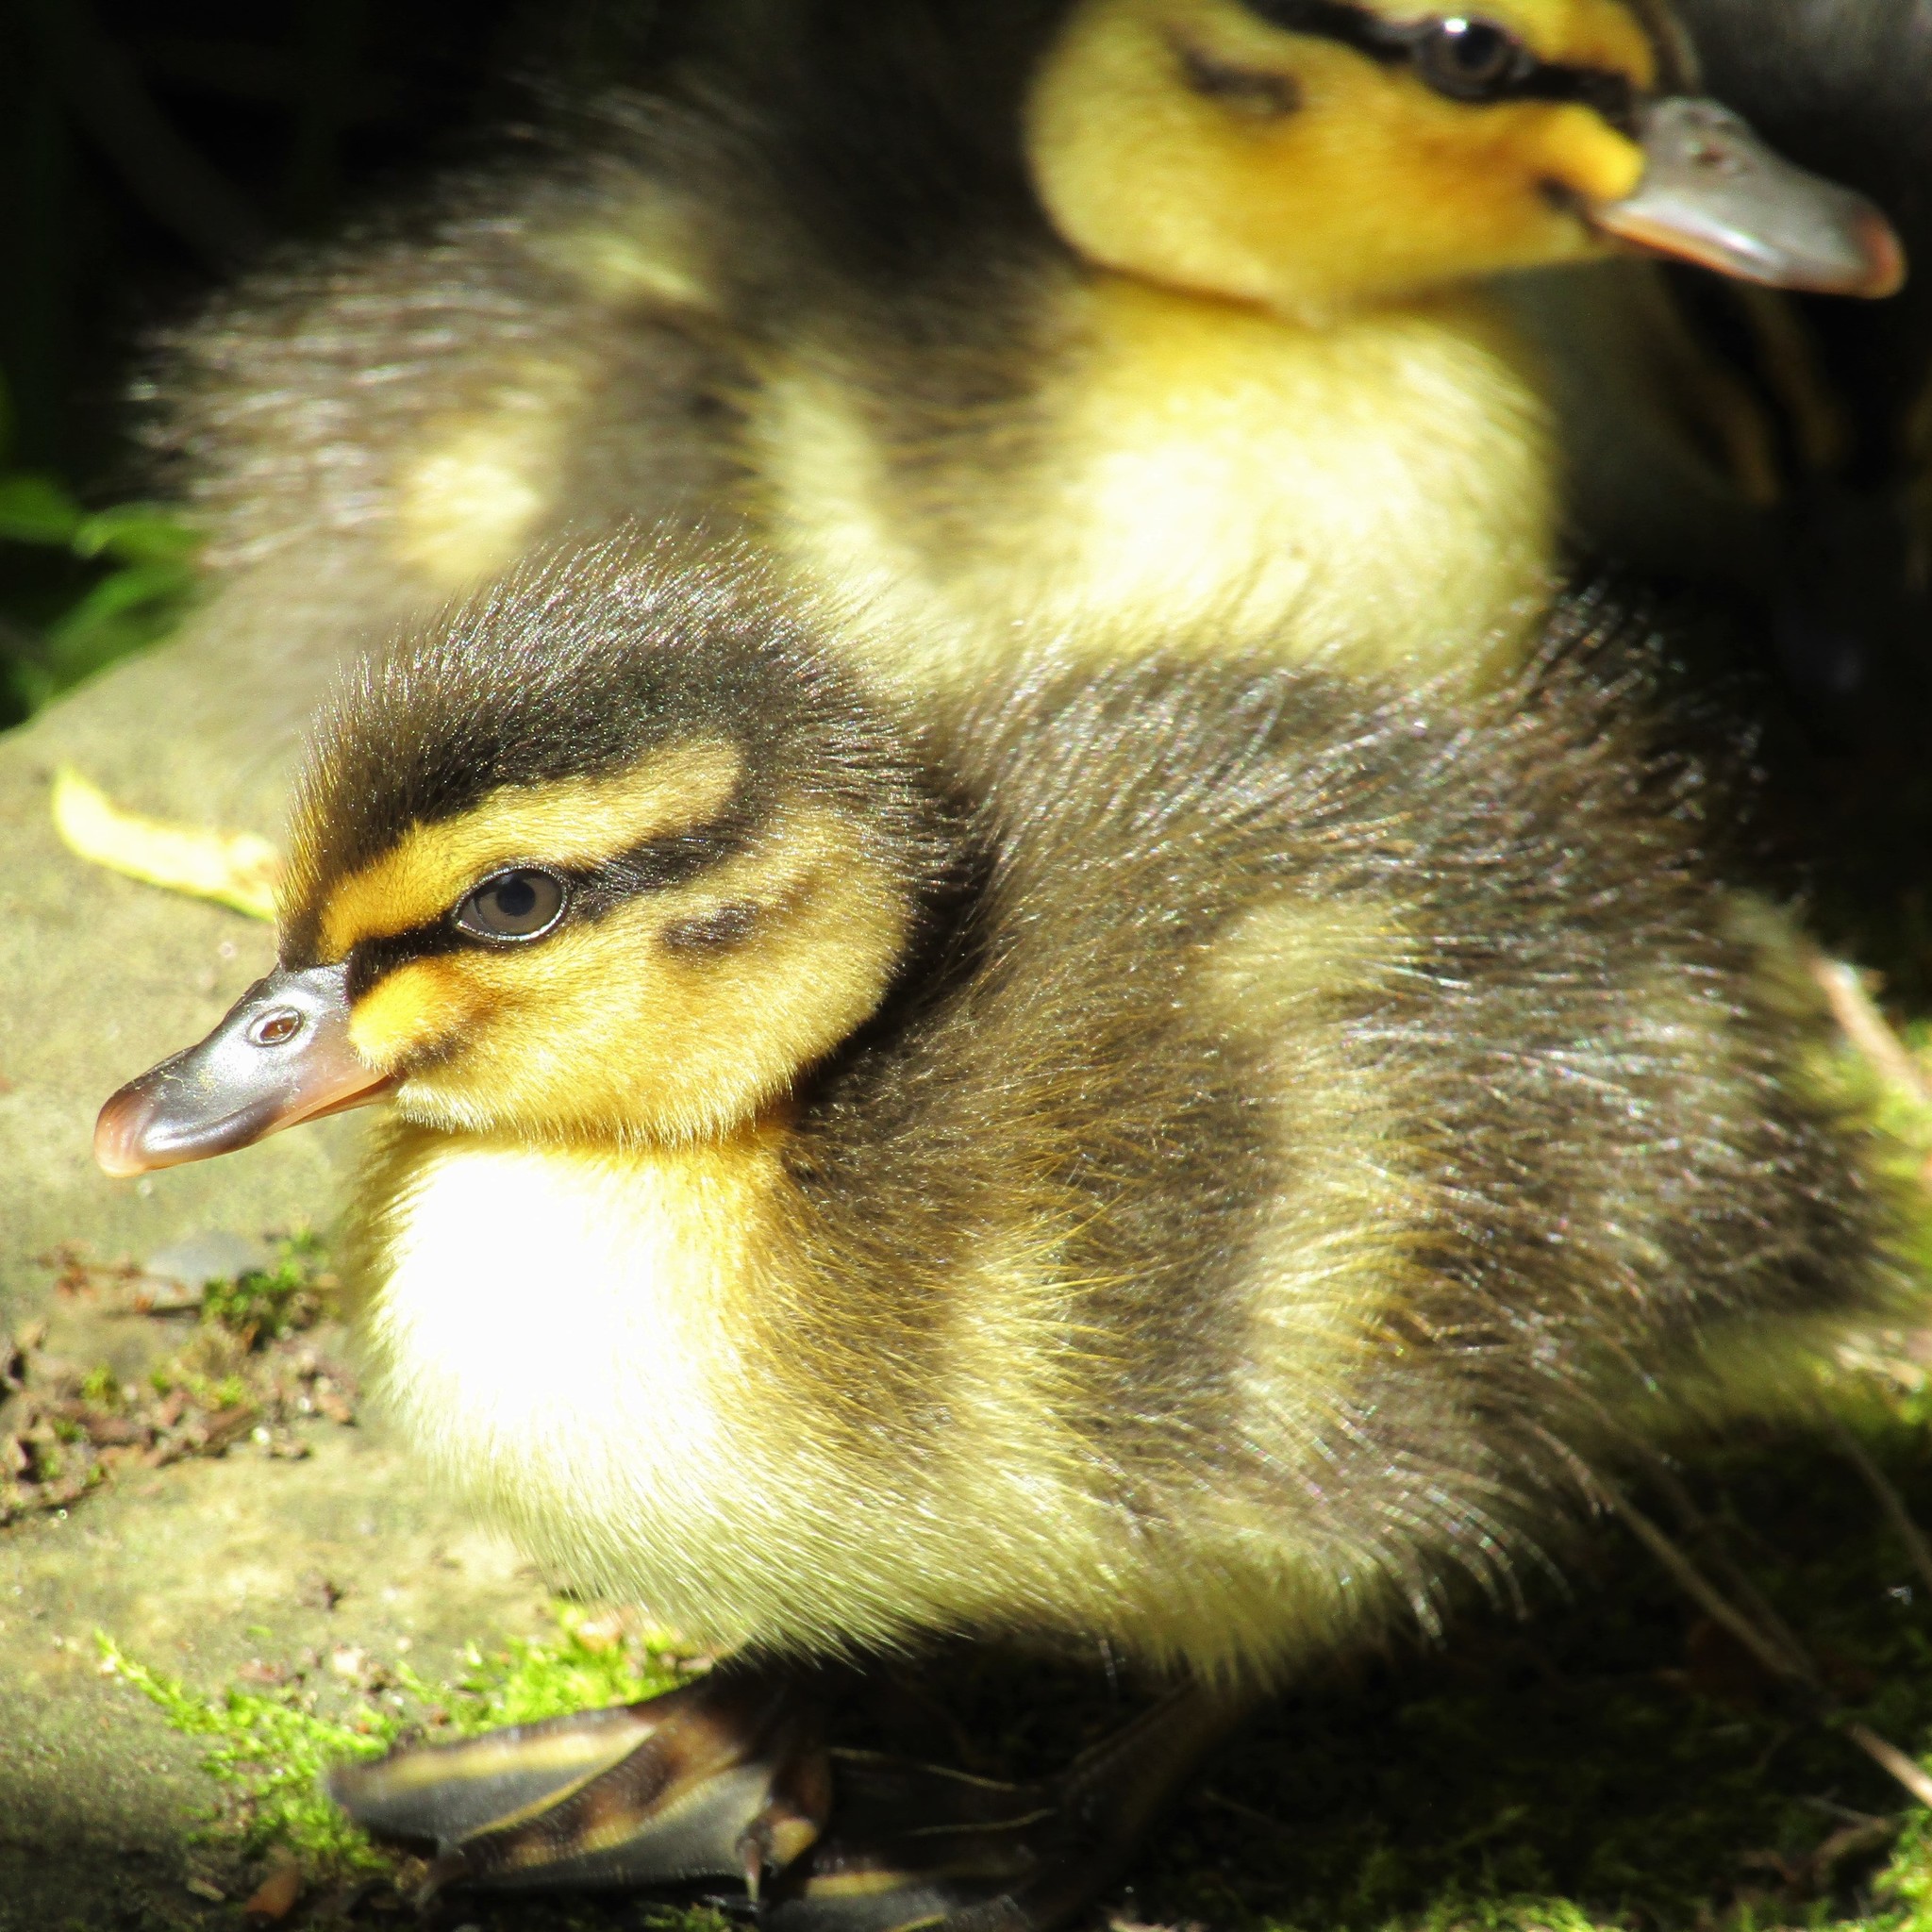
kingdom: Animalia
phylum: Chordata
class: Aves
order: Anseriformes
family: Anatidae
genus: Anas
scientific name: Anas
